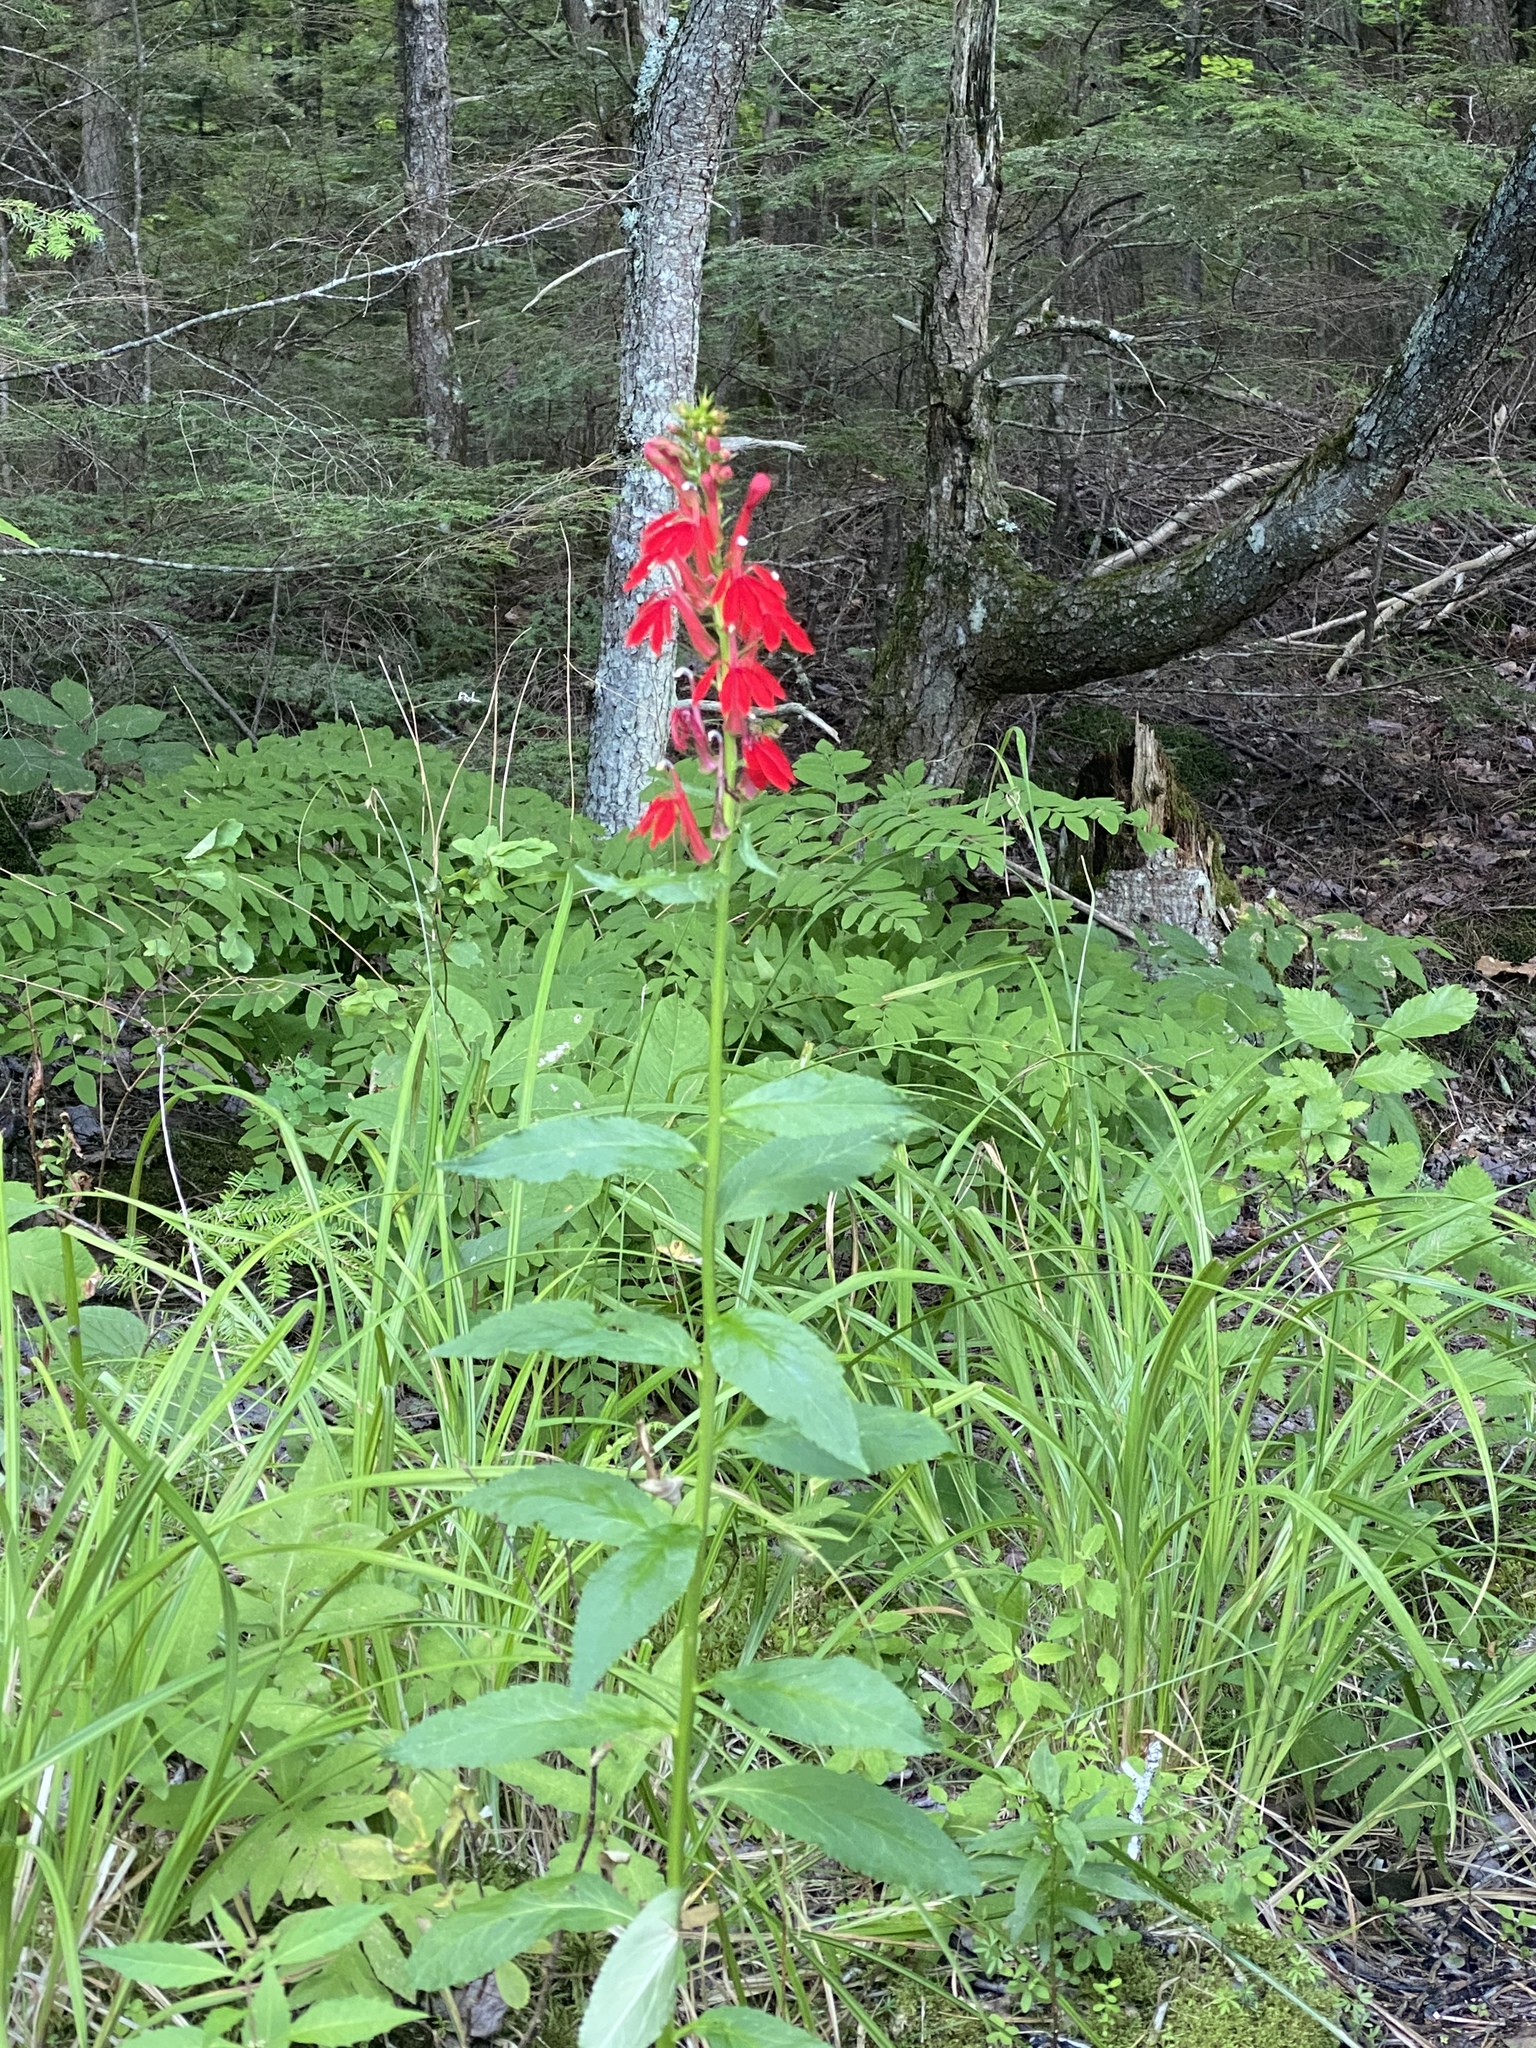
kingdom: Plantae
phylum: Tracheophyta
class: Magnoliopsida
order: Asterales
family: Campanulaceae
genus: Lobelia
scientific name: Lobelia cardinalis
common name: Cardinal flower
